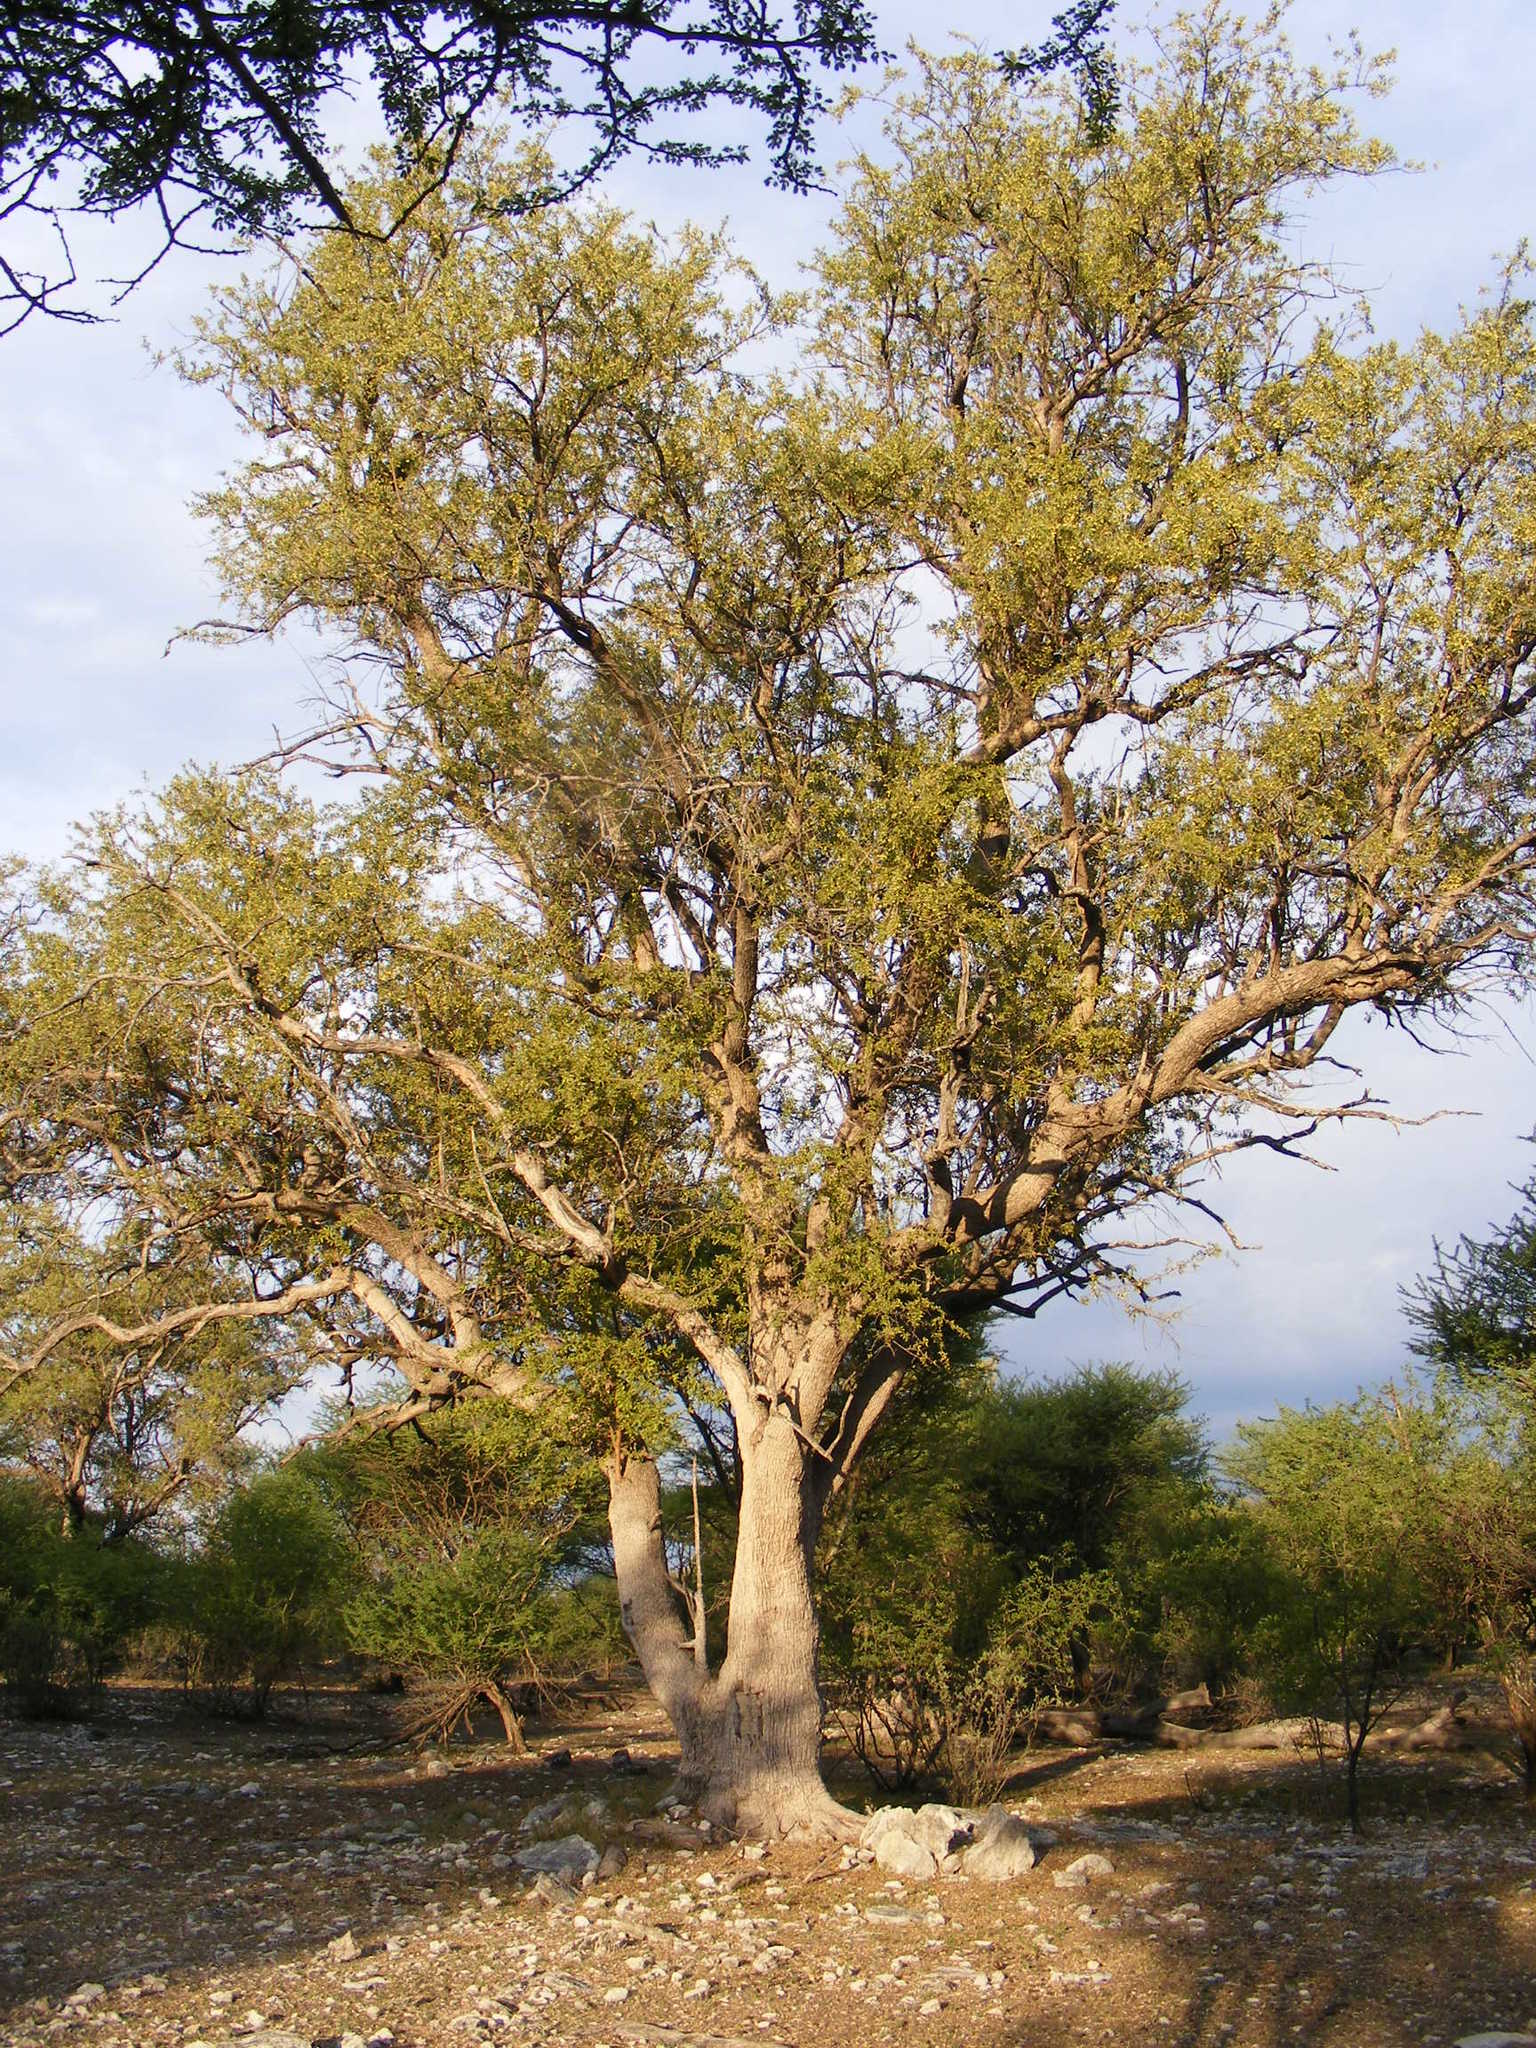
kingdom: Plantae
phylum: Tracheophyta
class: Magnoliopsida
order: Myrtales
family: Combretaceae
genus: Combretum
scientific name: Combretum imberbe
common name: Leadwood
